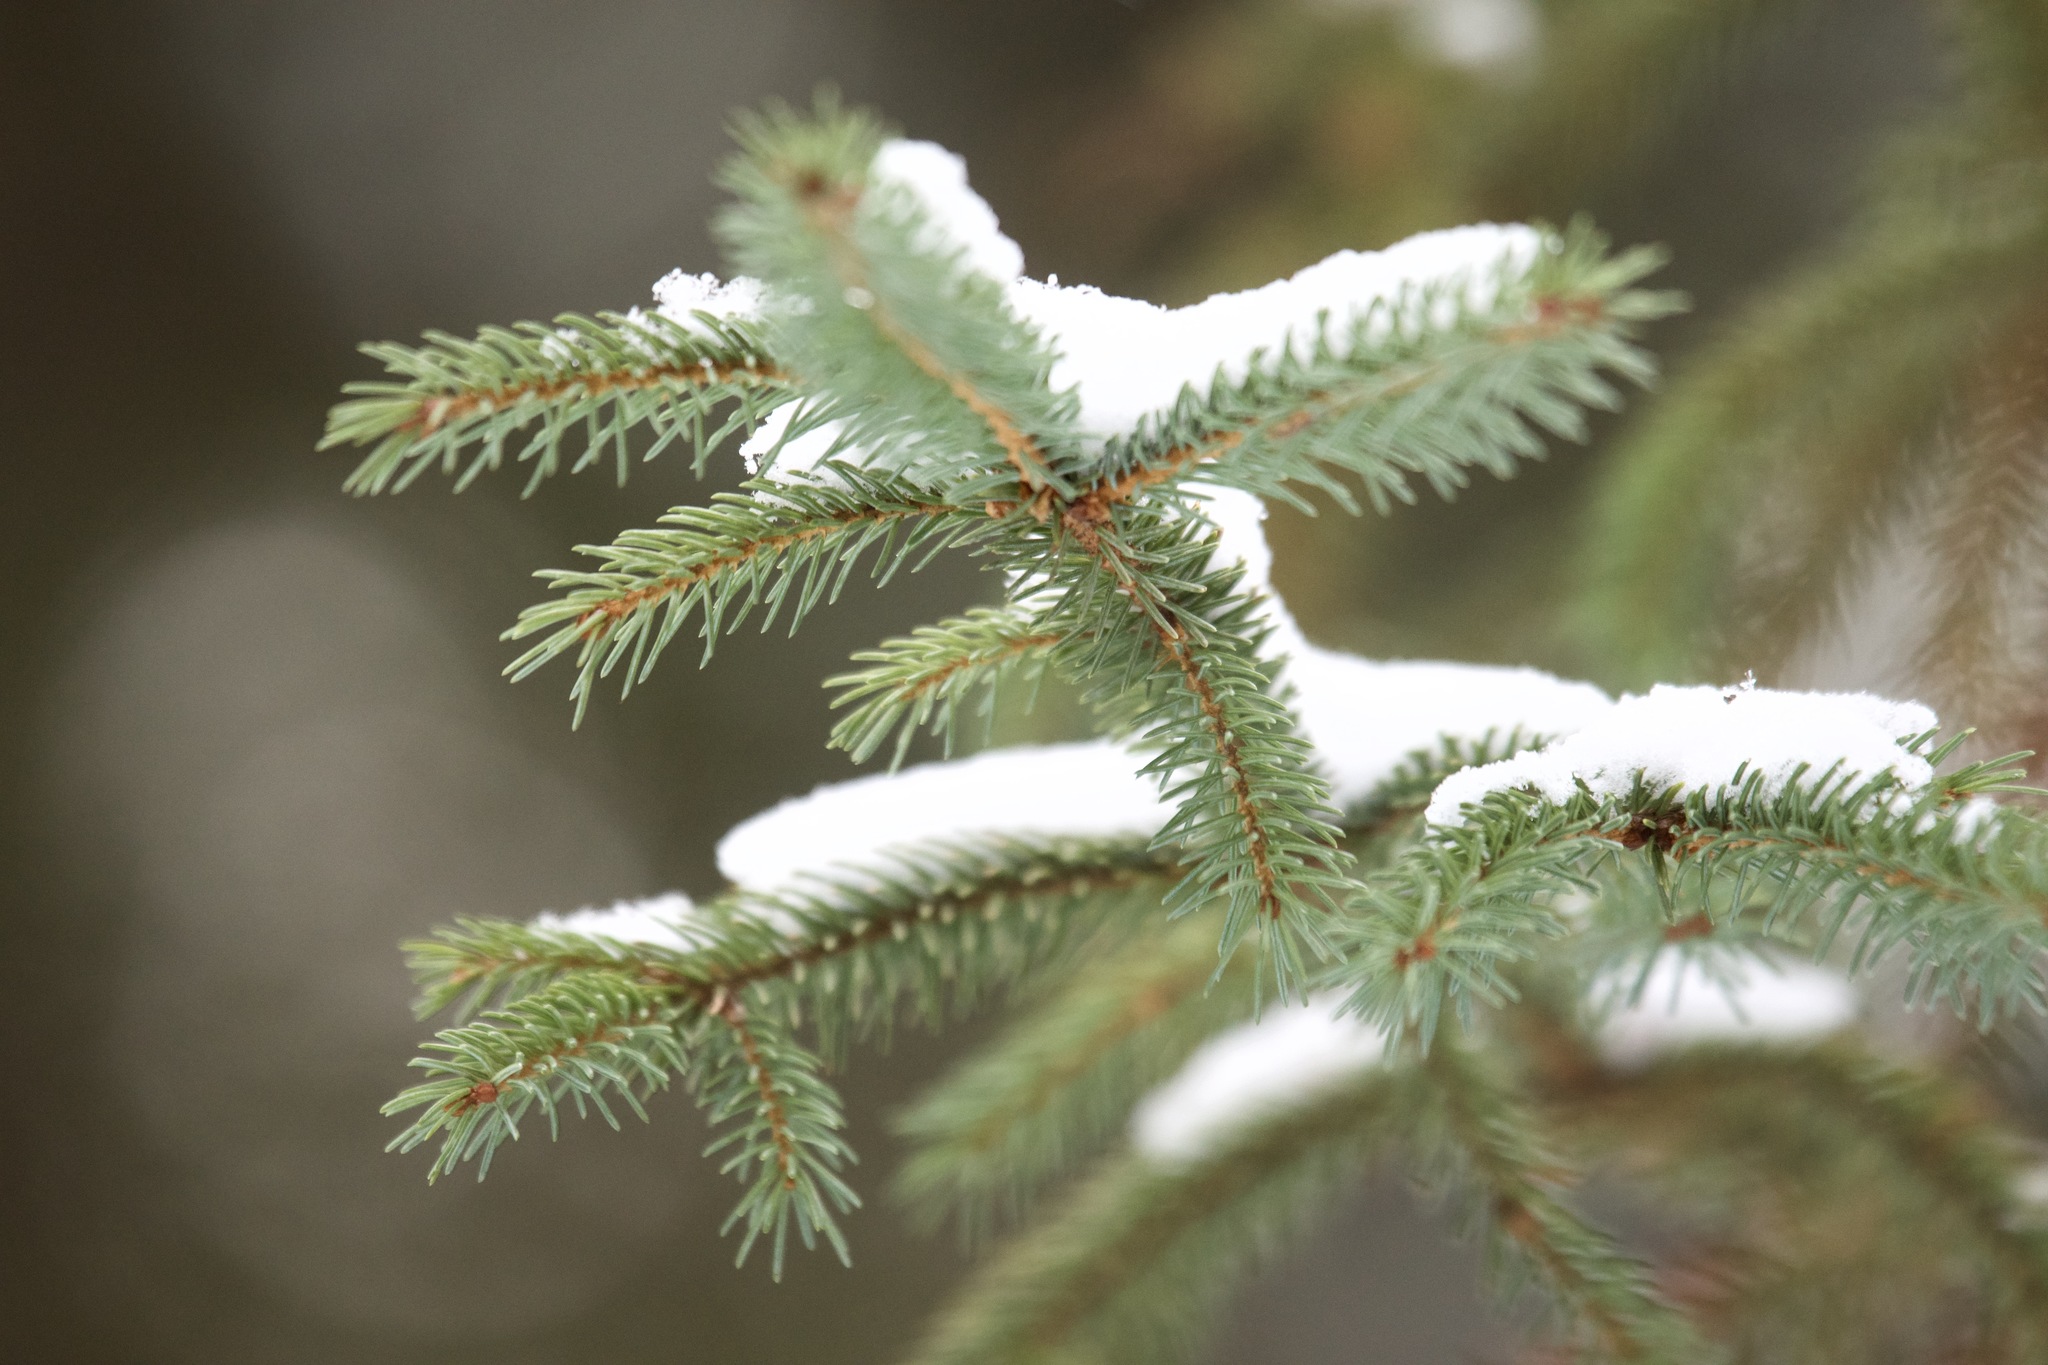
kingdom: Plantae
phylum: Tracheophyta
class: Pinopsida
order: Pinales
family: Pinaceae
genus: Picea
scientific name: Picea mariana
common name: Black spruce
